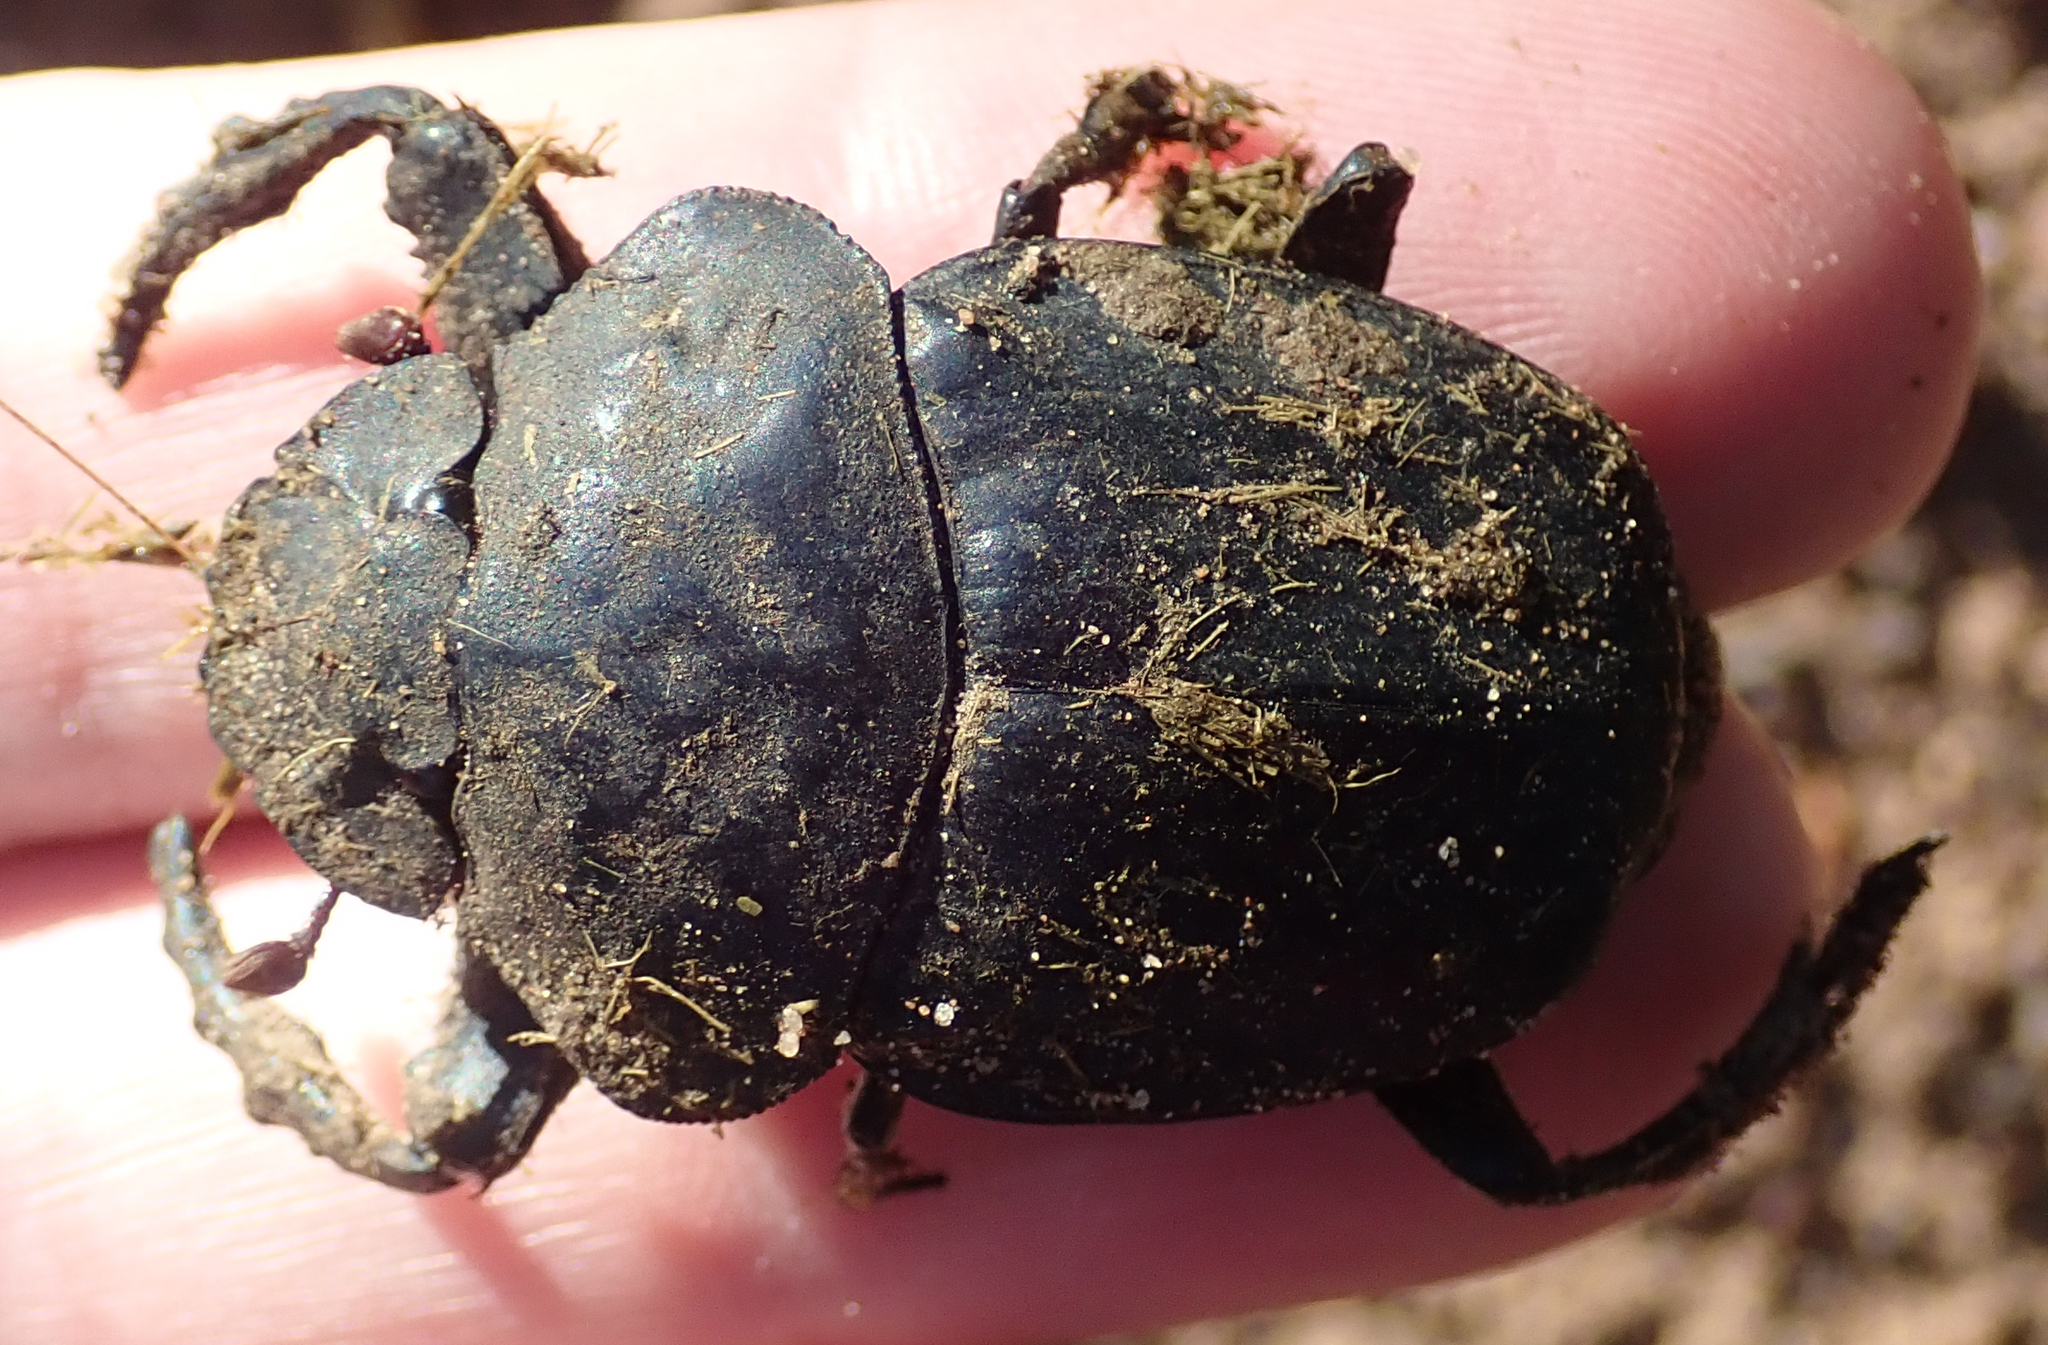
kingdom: Animalia
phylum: Arthropoda
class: Insecta
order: Coleoptera
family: Scarabaeidae
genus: Pachylomera
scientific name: Pachylomera femoralis
